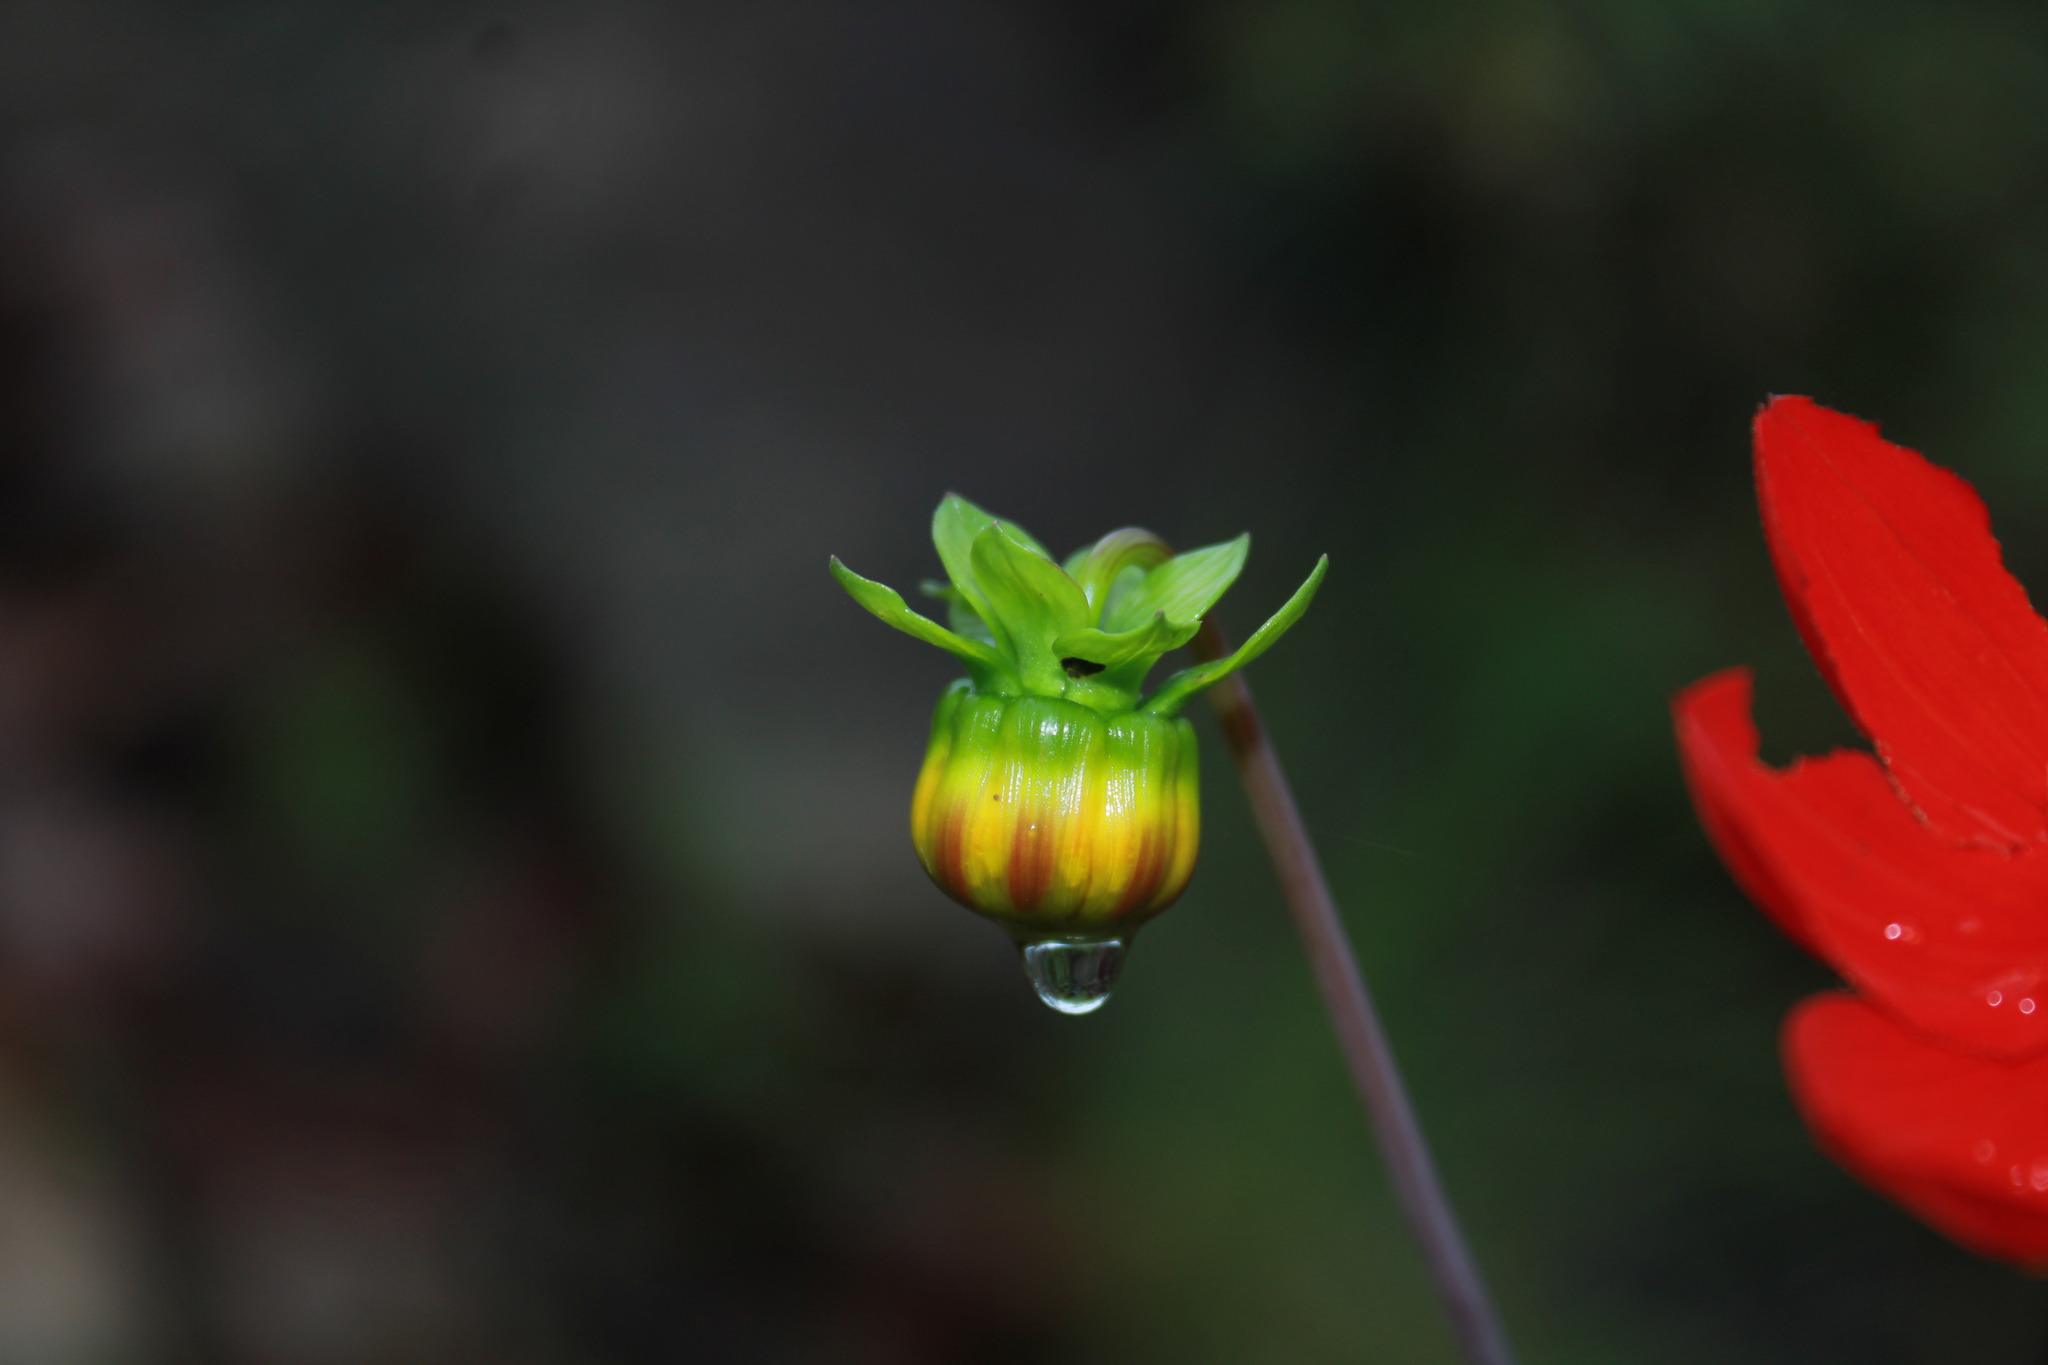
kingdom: Plantae
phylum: Tracheophyta
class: Magnoliopsida
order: Asterales
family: Asteraceae
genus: Dahlia
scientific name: Dahlia coccinea
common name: Red dahlia
